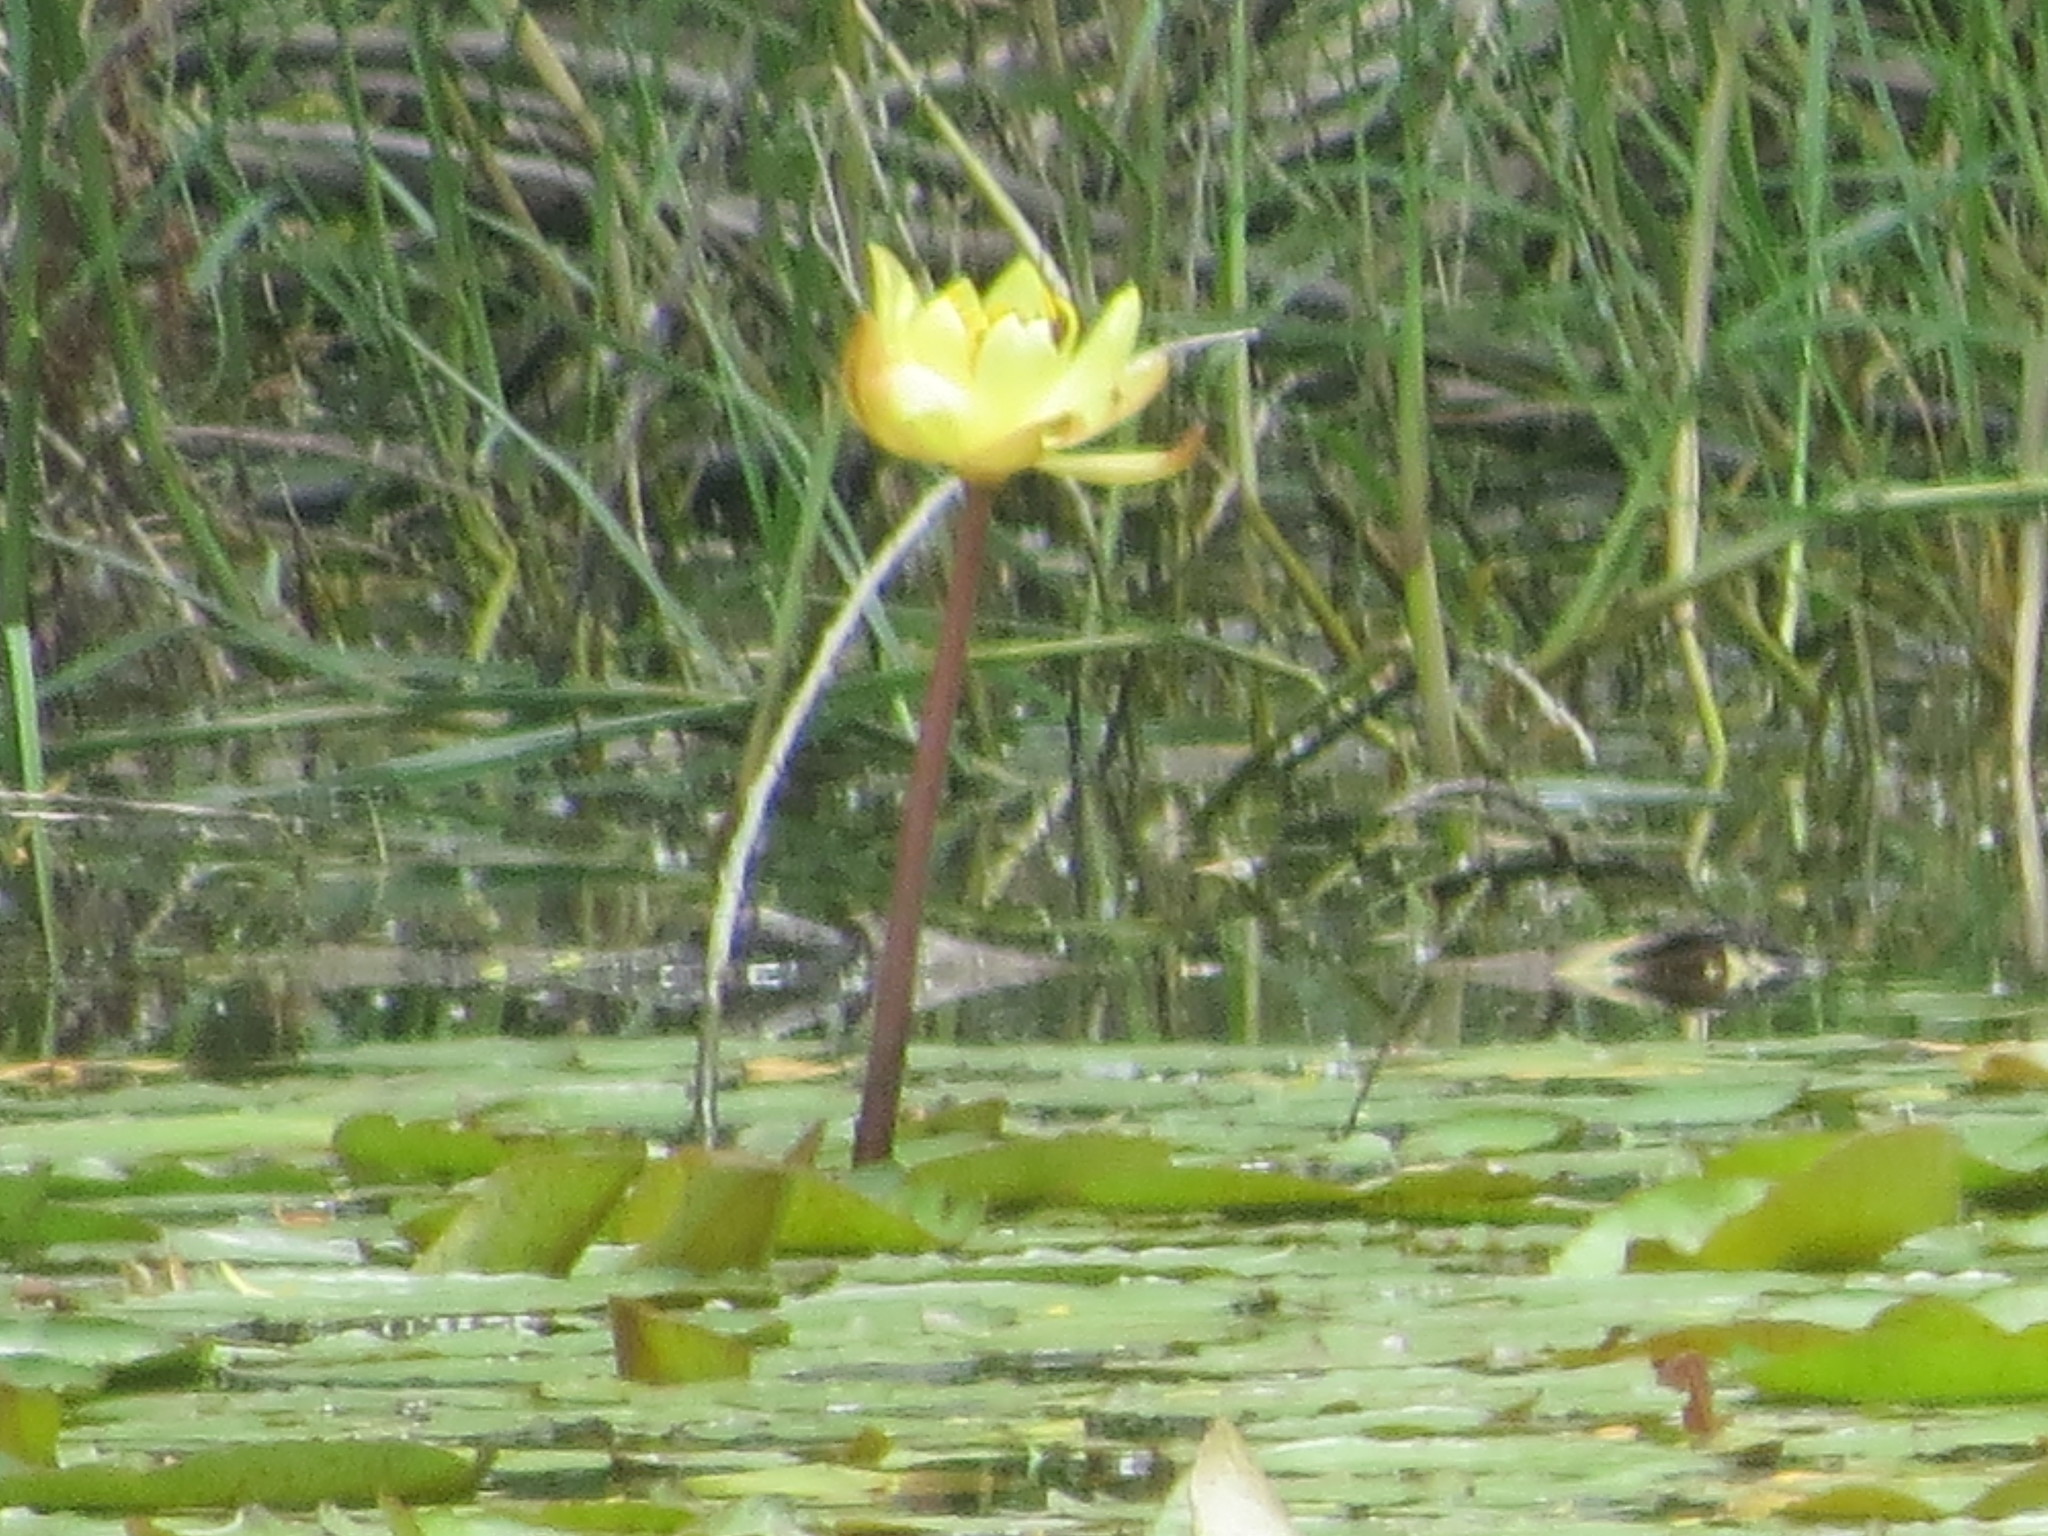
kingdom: Plantae
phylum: Tracheophyta
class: Magnoliopsida
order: Nymphaeales
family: Nymphaeaceae
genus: Nymphaea
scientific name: Nymphaea mexicana
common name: Banana water-lily
